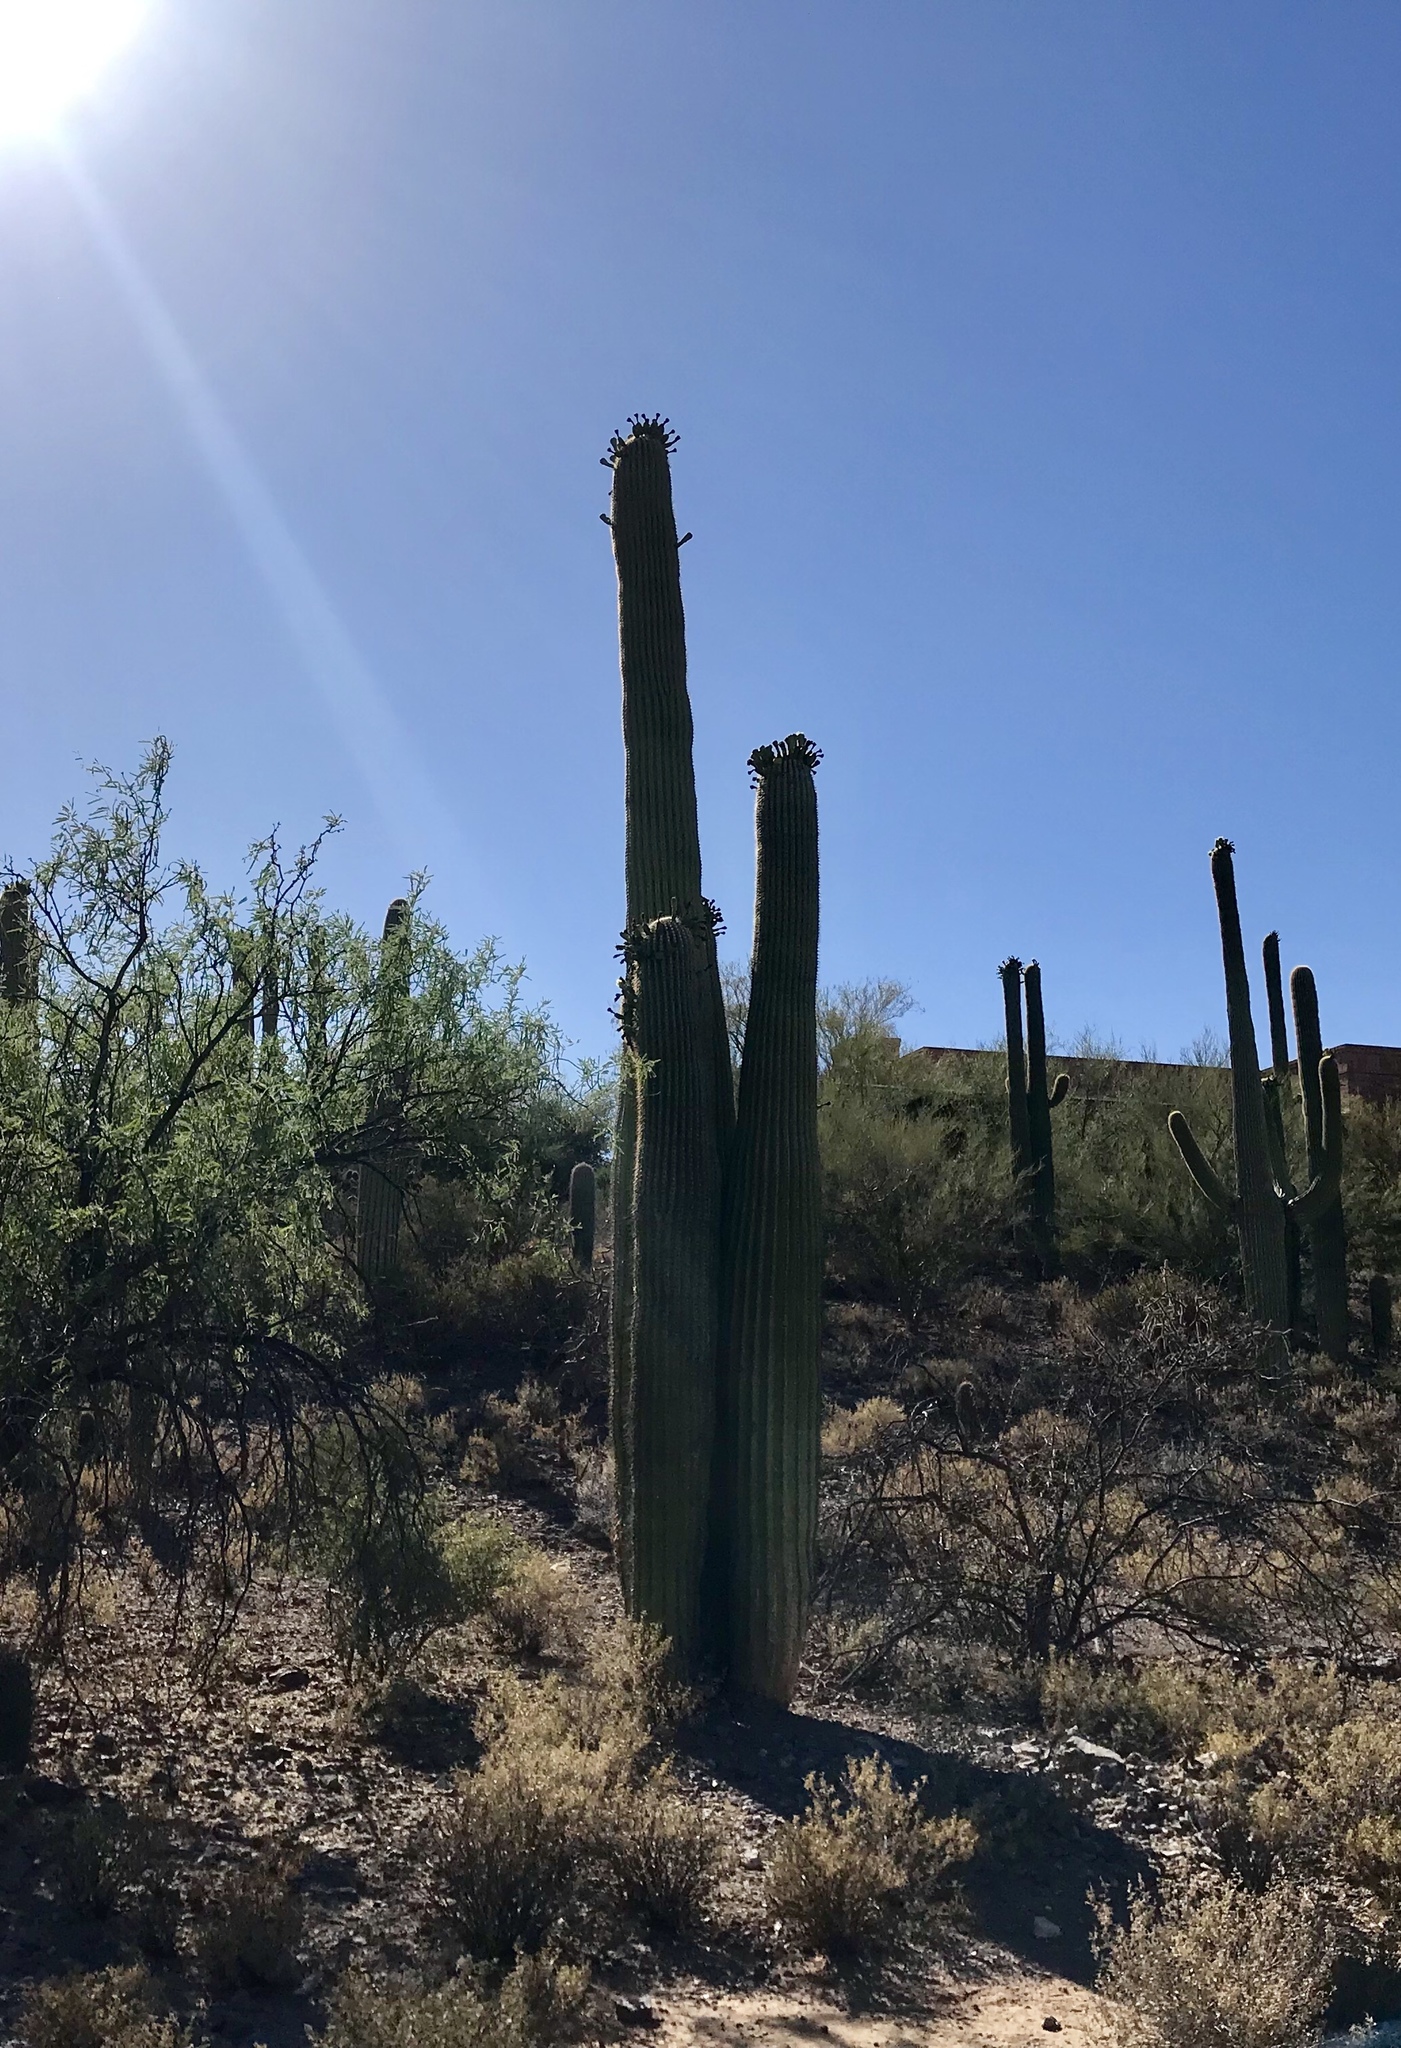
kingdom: Plantae
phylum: Tracheophyta
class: Magnoliopsida
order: Caryophyllales
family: Cactaceae
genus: Carnegiea
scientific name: Carnegiea gigantea
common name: Saguaro
